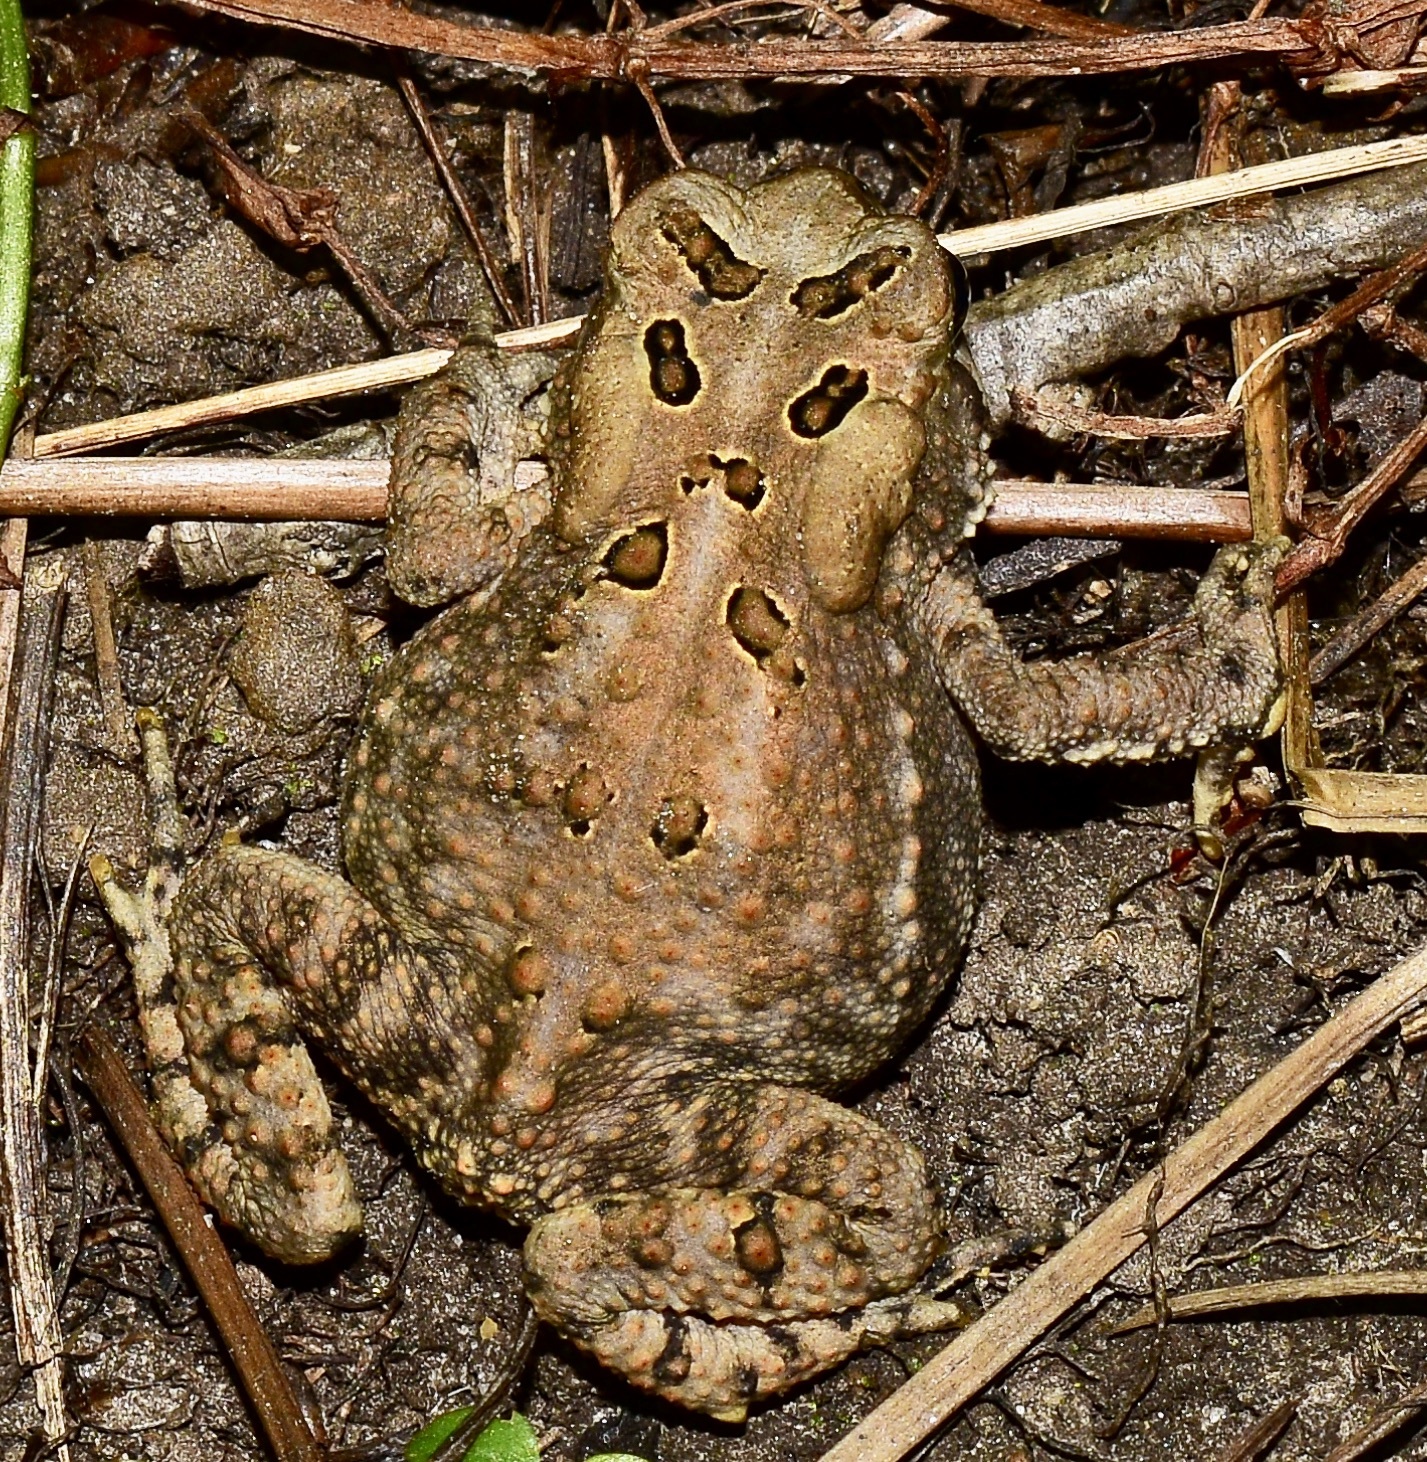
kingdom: Animalia
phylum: Chordata
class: Amphibia
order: Anura
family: Bufonidae
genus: Anaxyrus
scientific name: Anaxyrus americanus
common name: American toad
